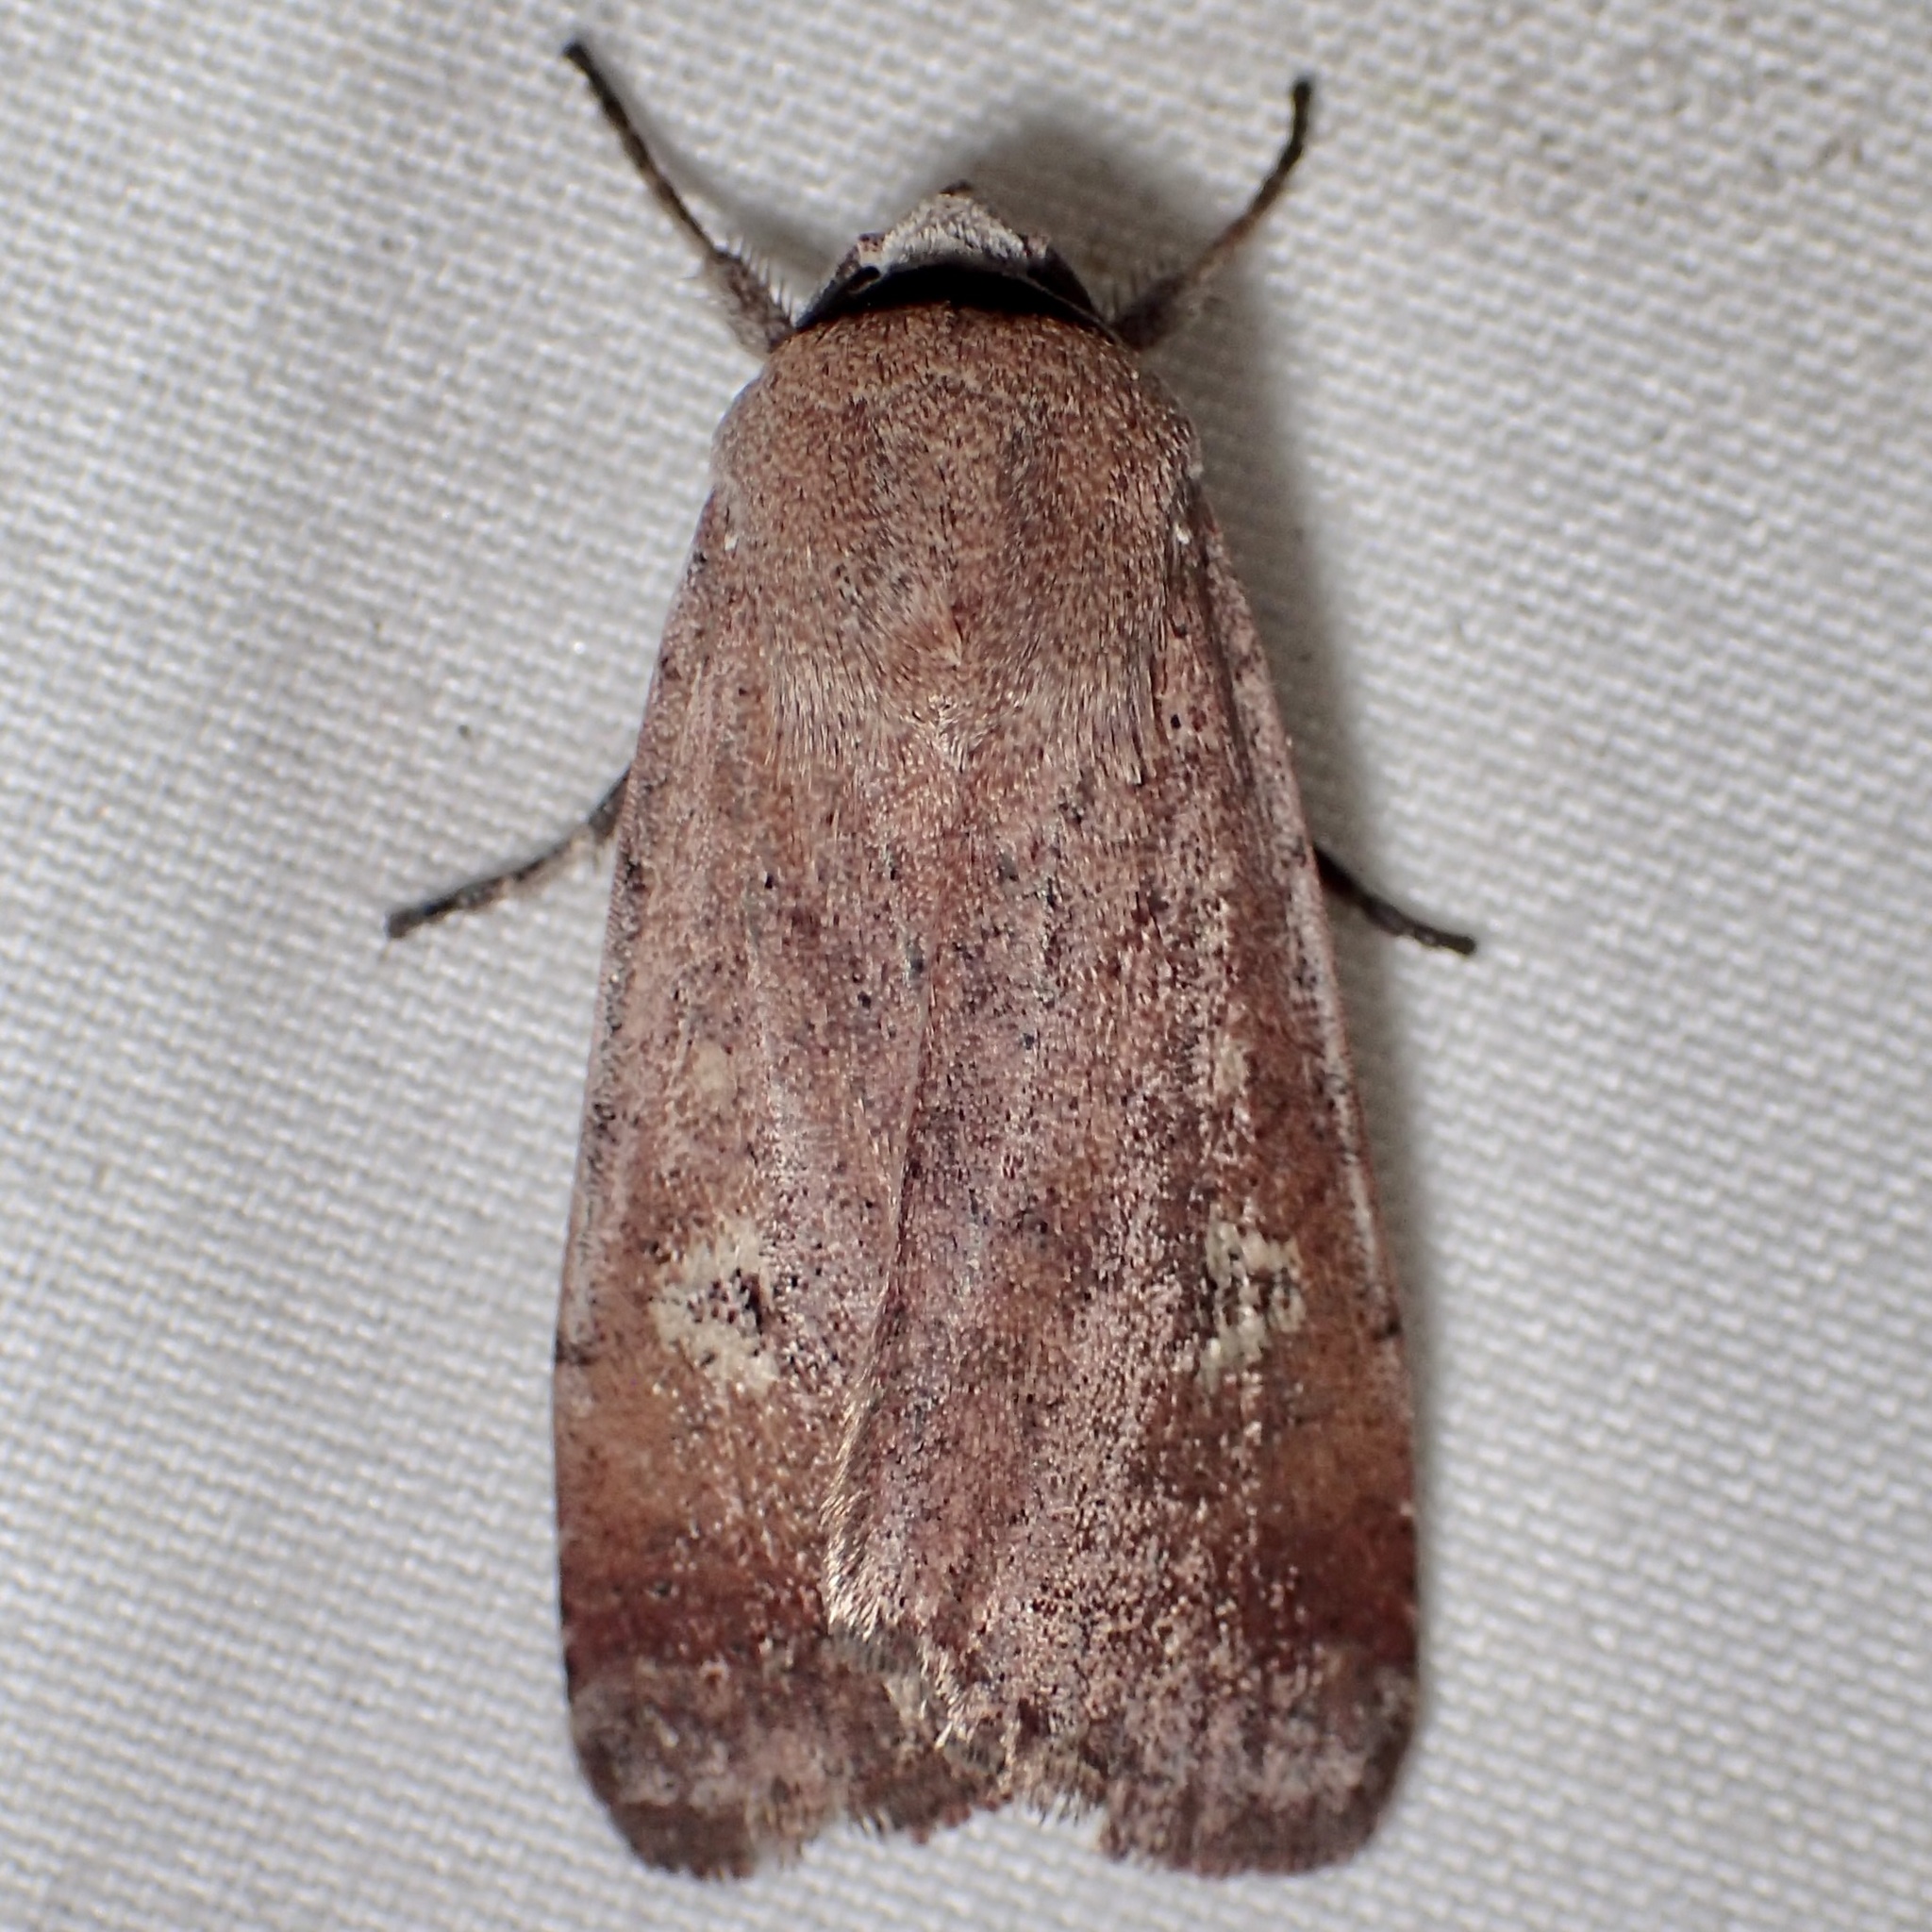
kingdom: Animalia
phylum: Arthropoda
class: Insecta
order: Lepidoptera
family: Noctuidae
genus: Anicla
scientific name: Anicla biformata
